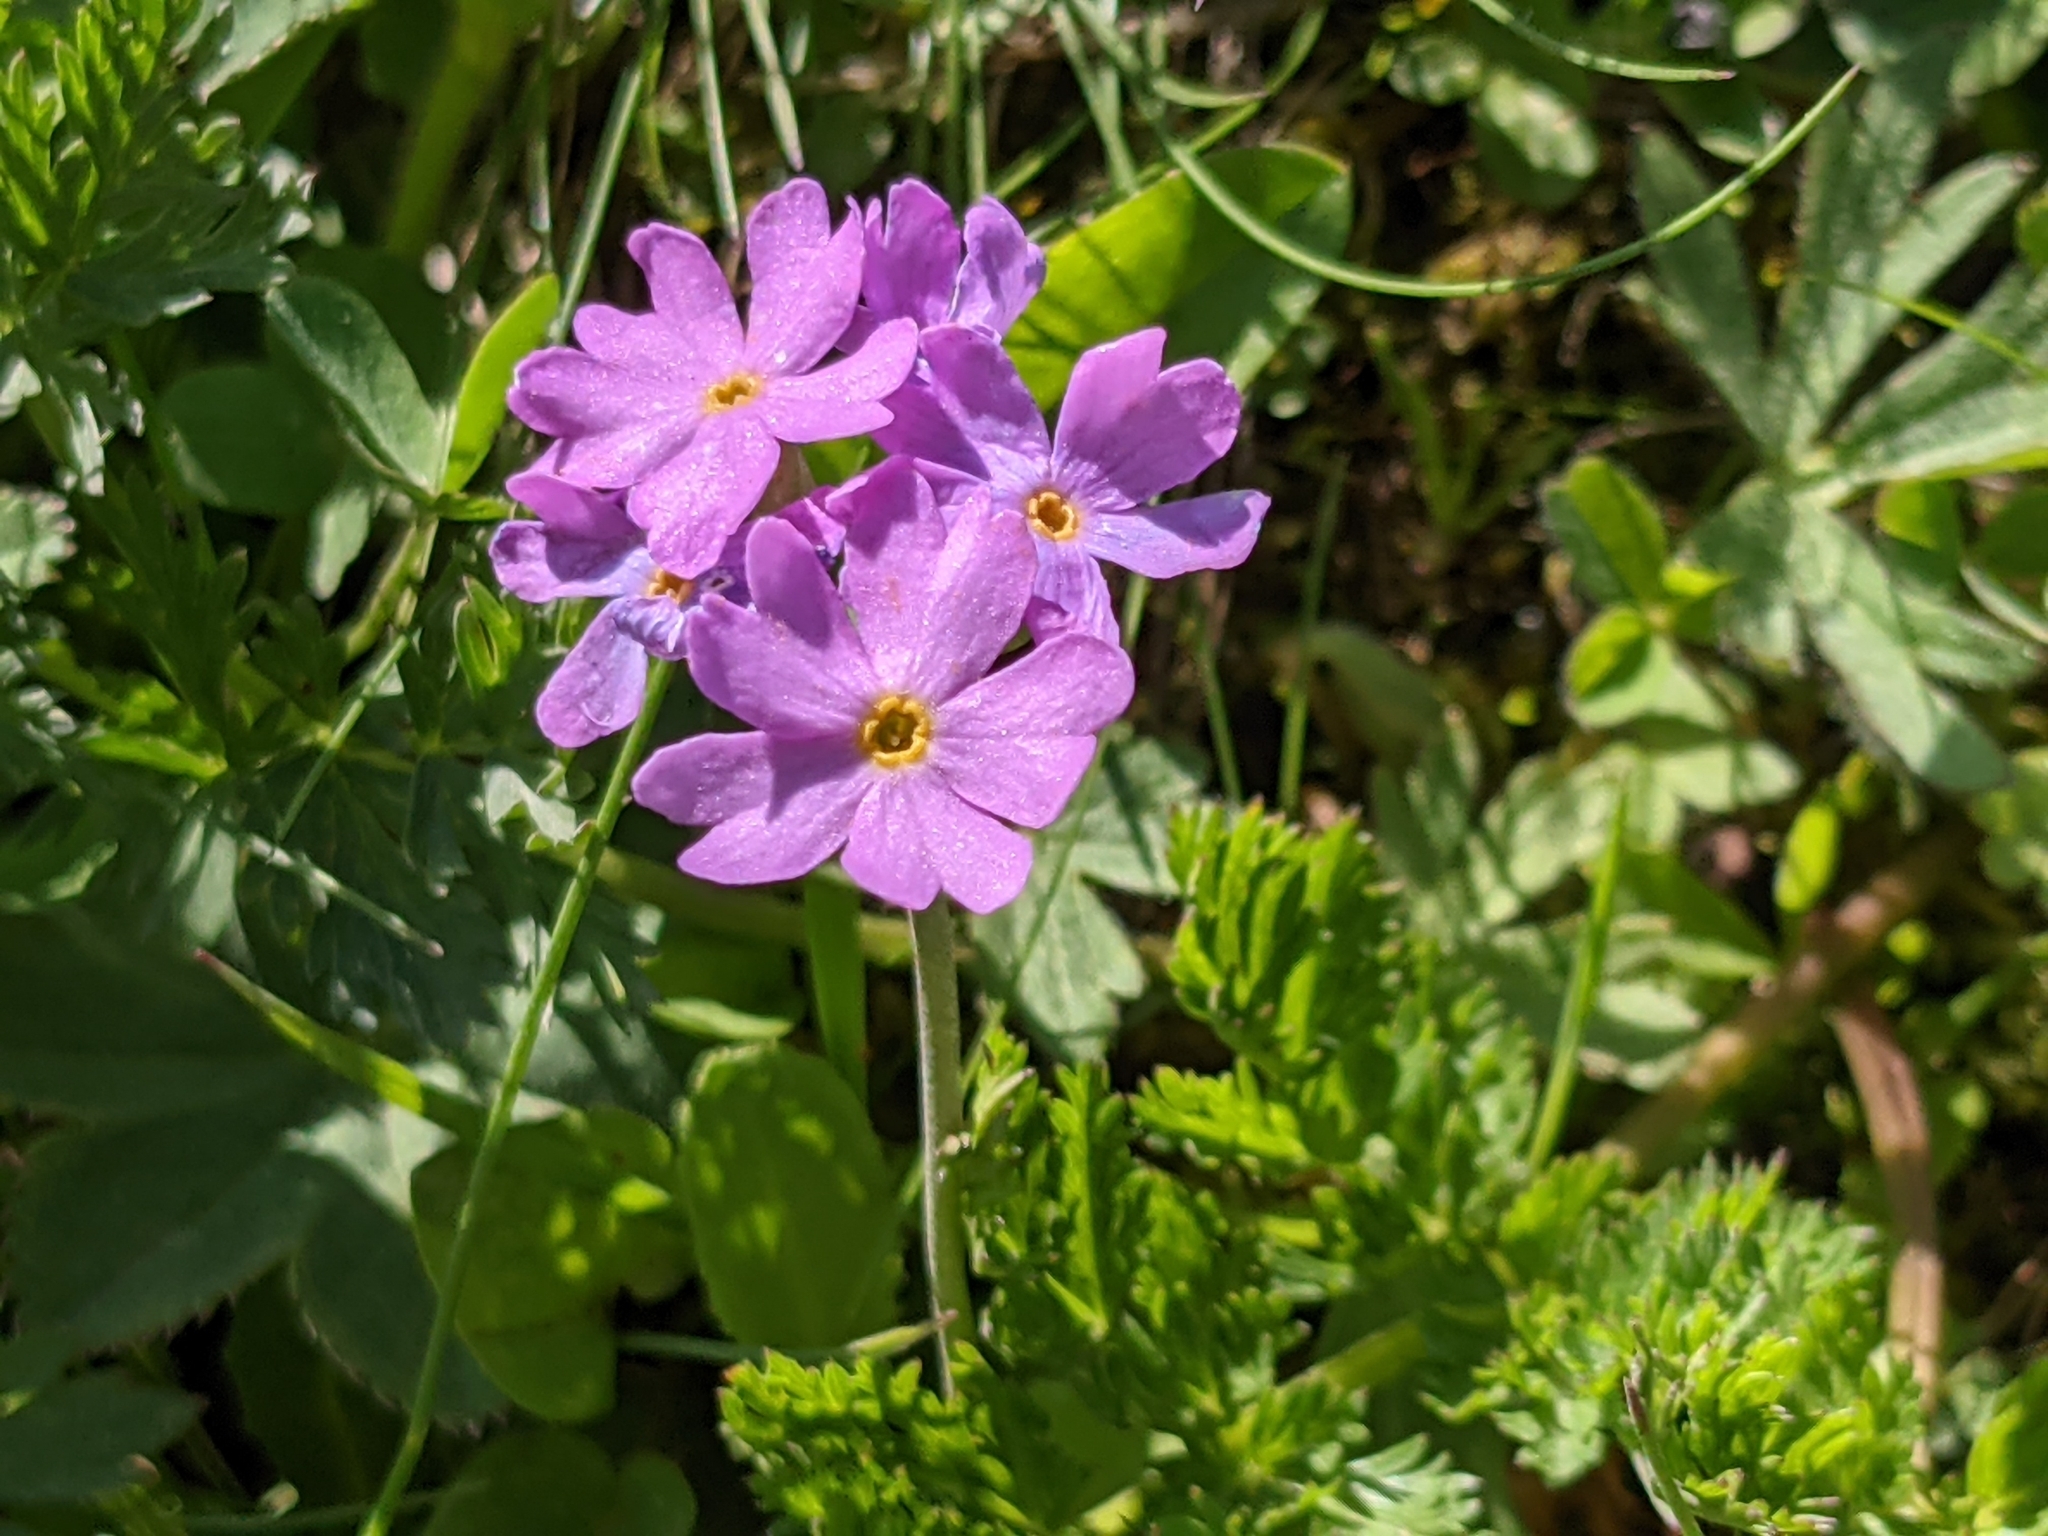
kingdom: Plantae
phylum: Tracheophyta
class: Magnoliopsida
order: Ericales
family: Primulaceae
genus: Primula
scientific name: Primula farinosa
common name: Bird's-eye primrose
